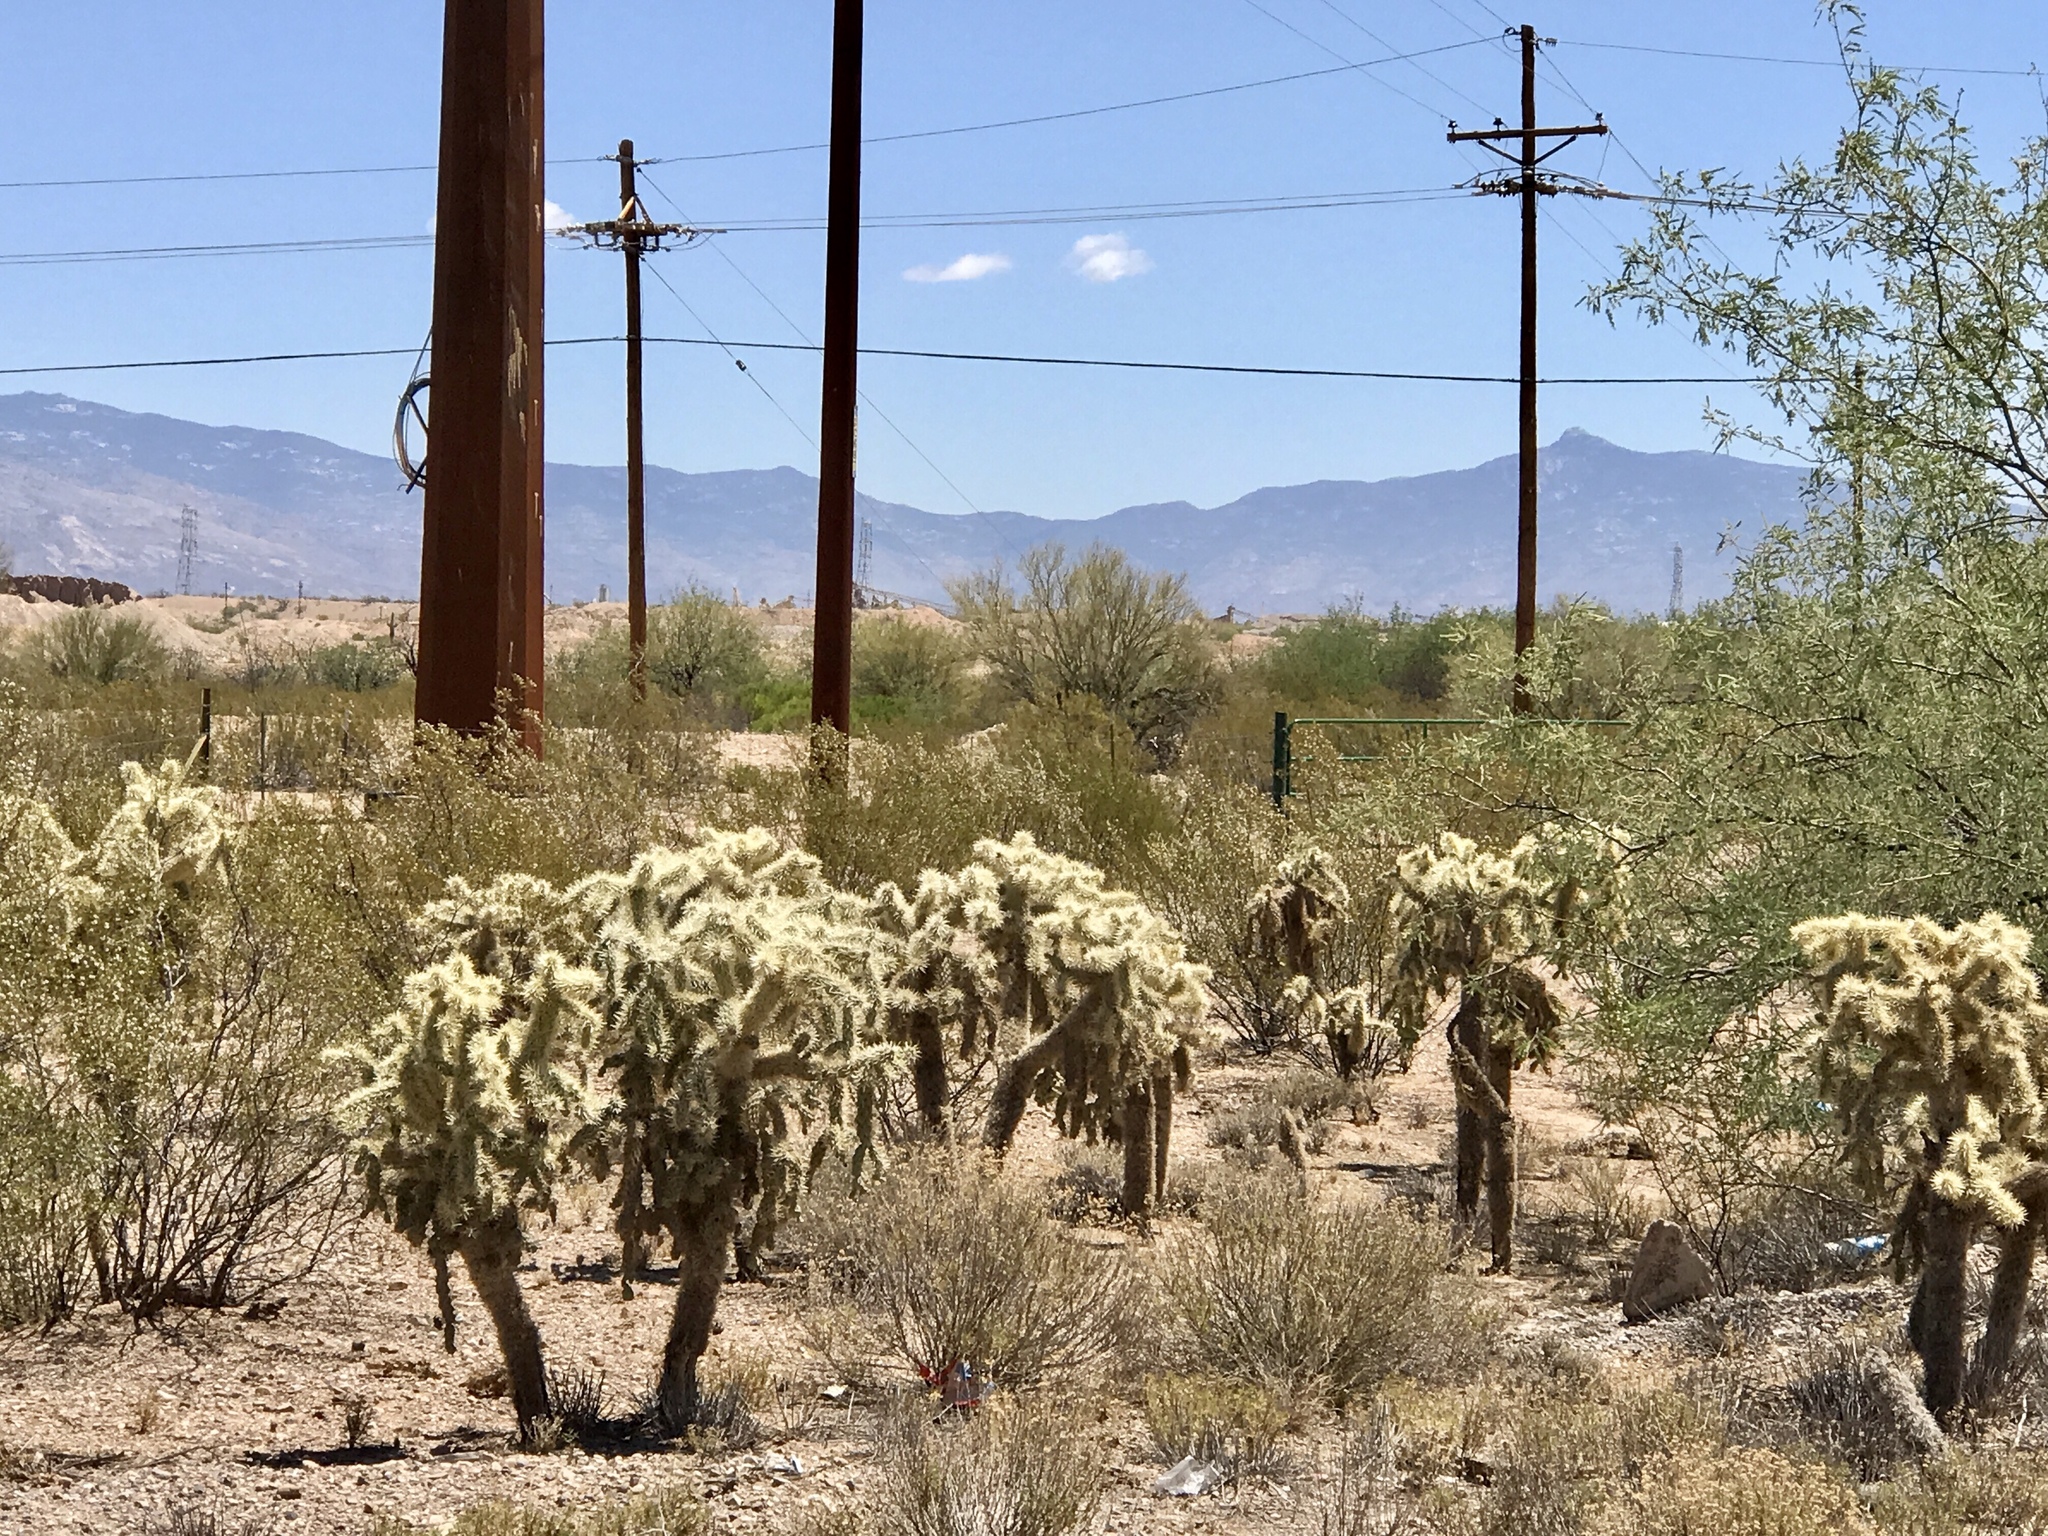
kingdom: Plantae
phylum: Tracheophyta
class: Magnoliopsida
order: Caryophyllales
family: Cactaceae
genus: Cylindropuntia
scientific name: Cylindropuntia fulgida
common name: Jumping cholla
